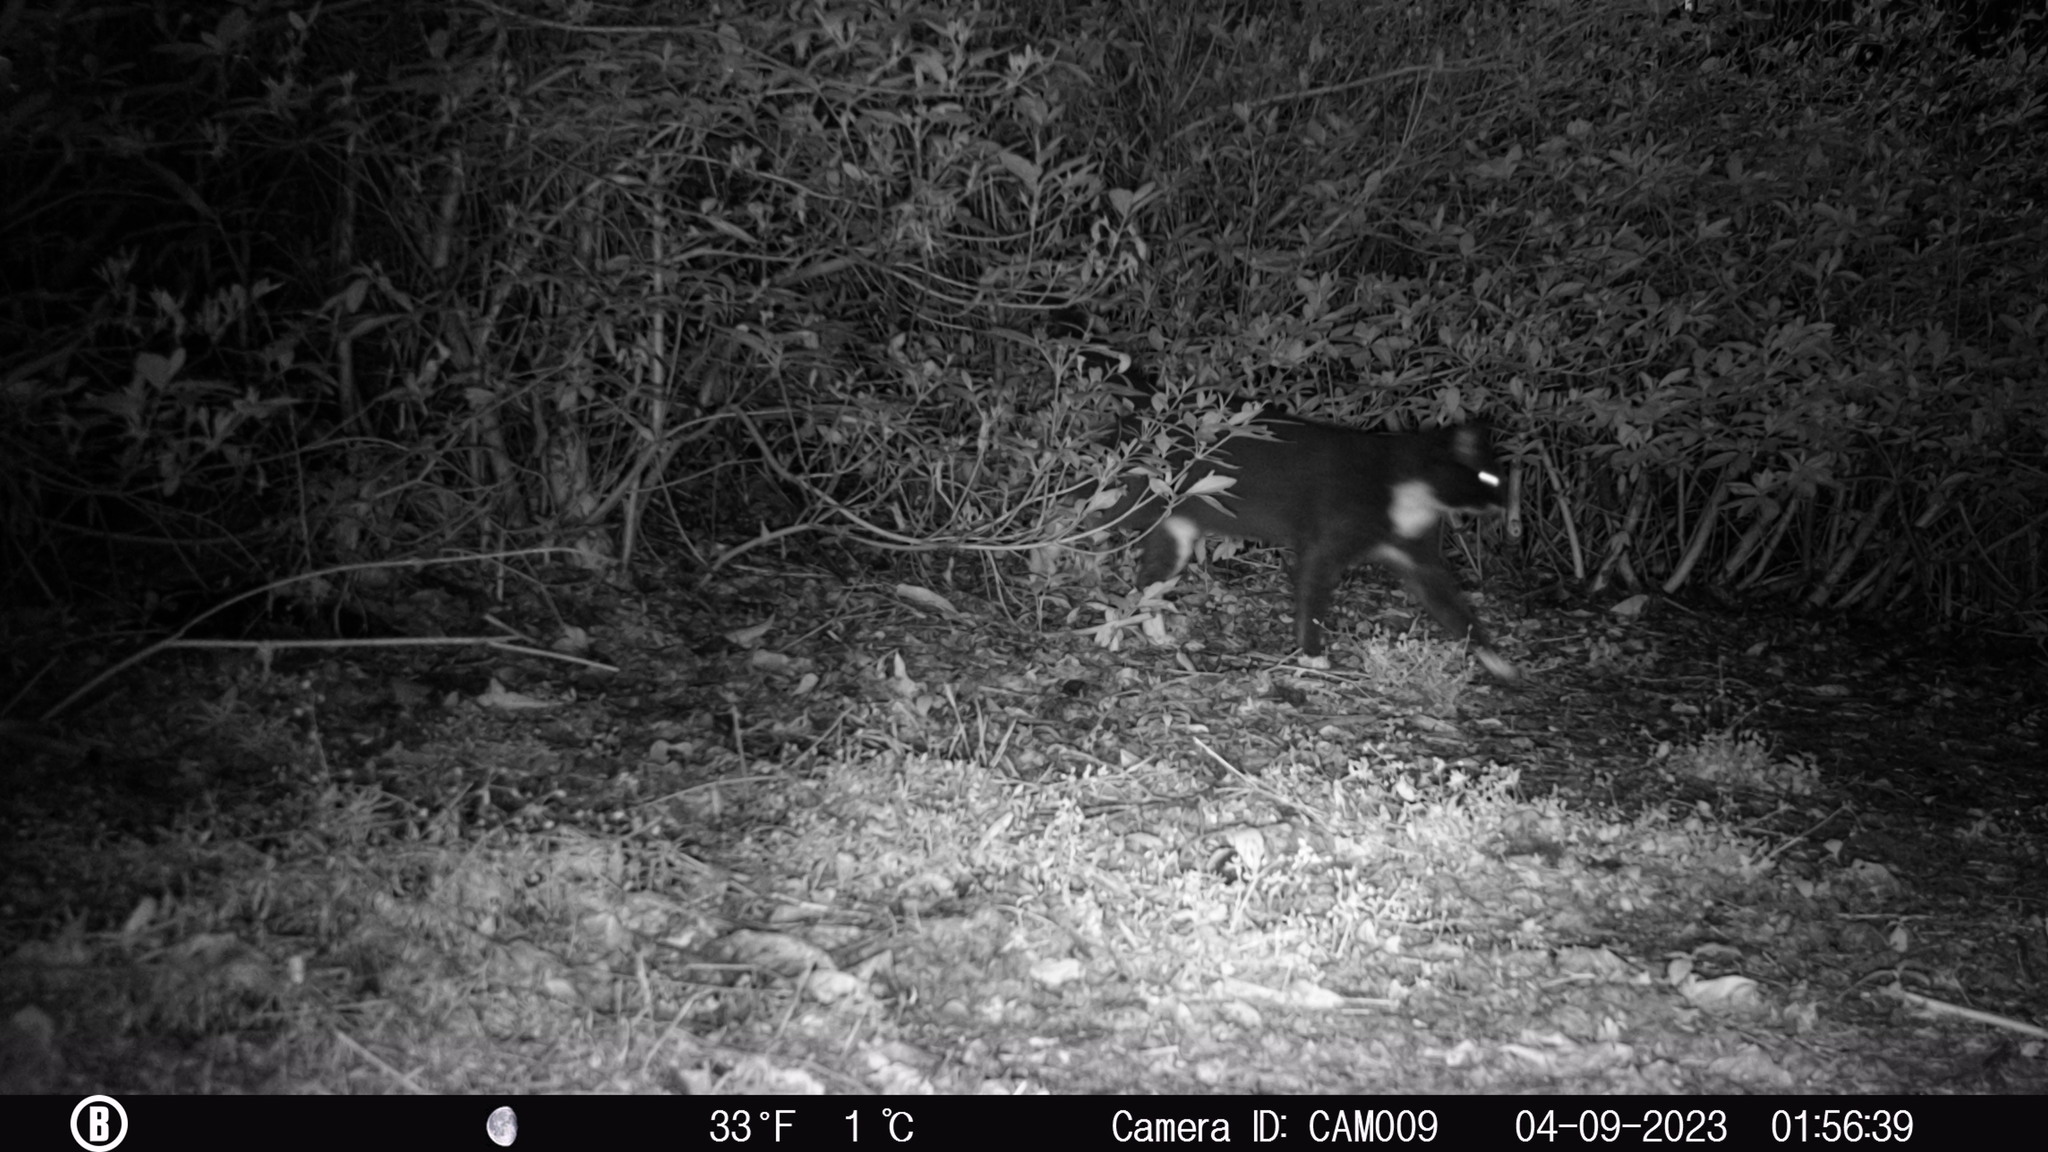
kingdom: Animalia
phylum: Chordata
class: Mammalia
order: Carnivora
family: Felidae
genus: Felis
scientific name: Felis catus
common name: Domestic cat
